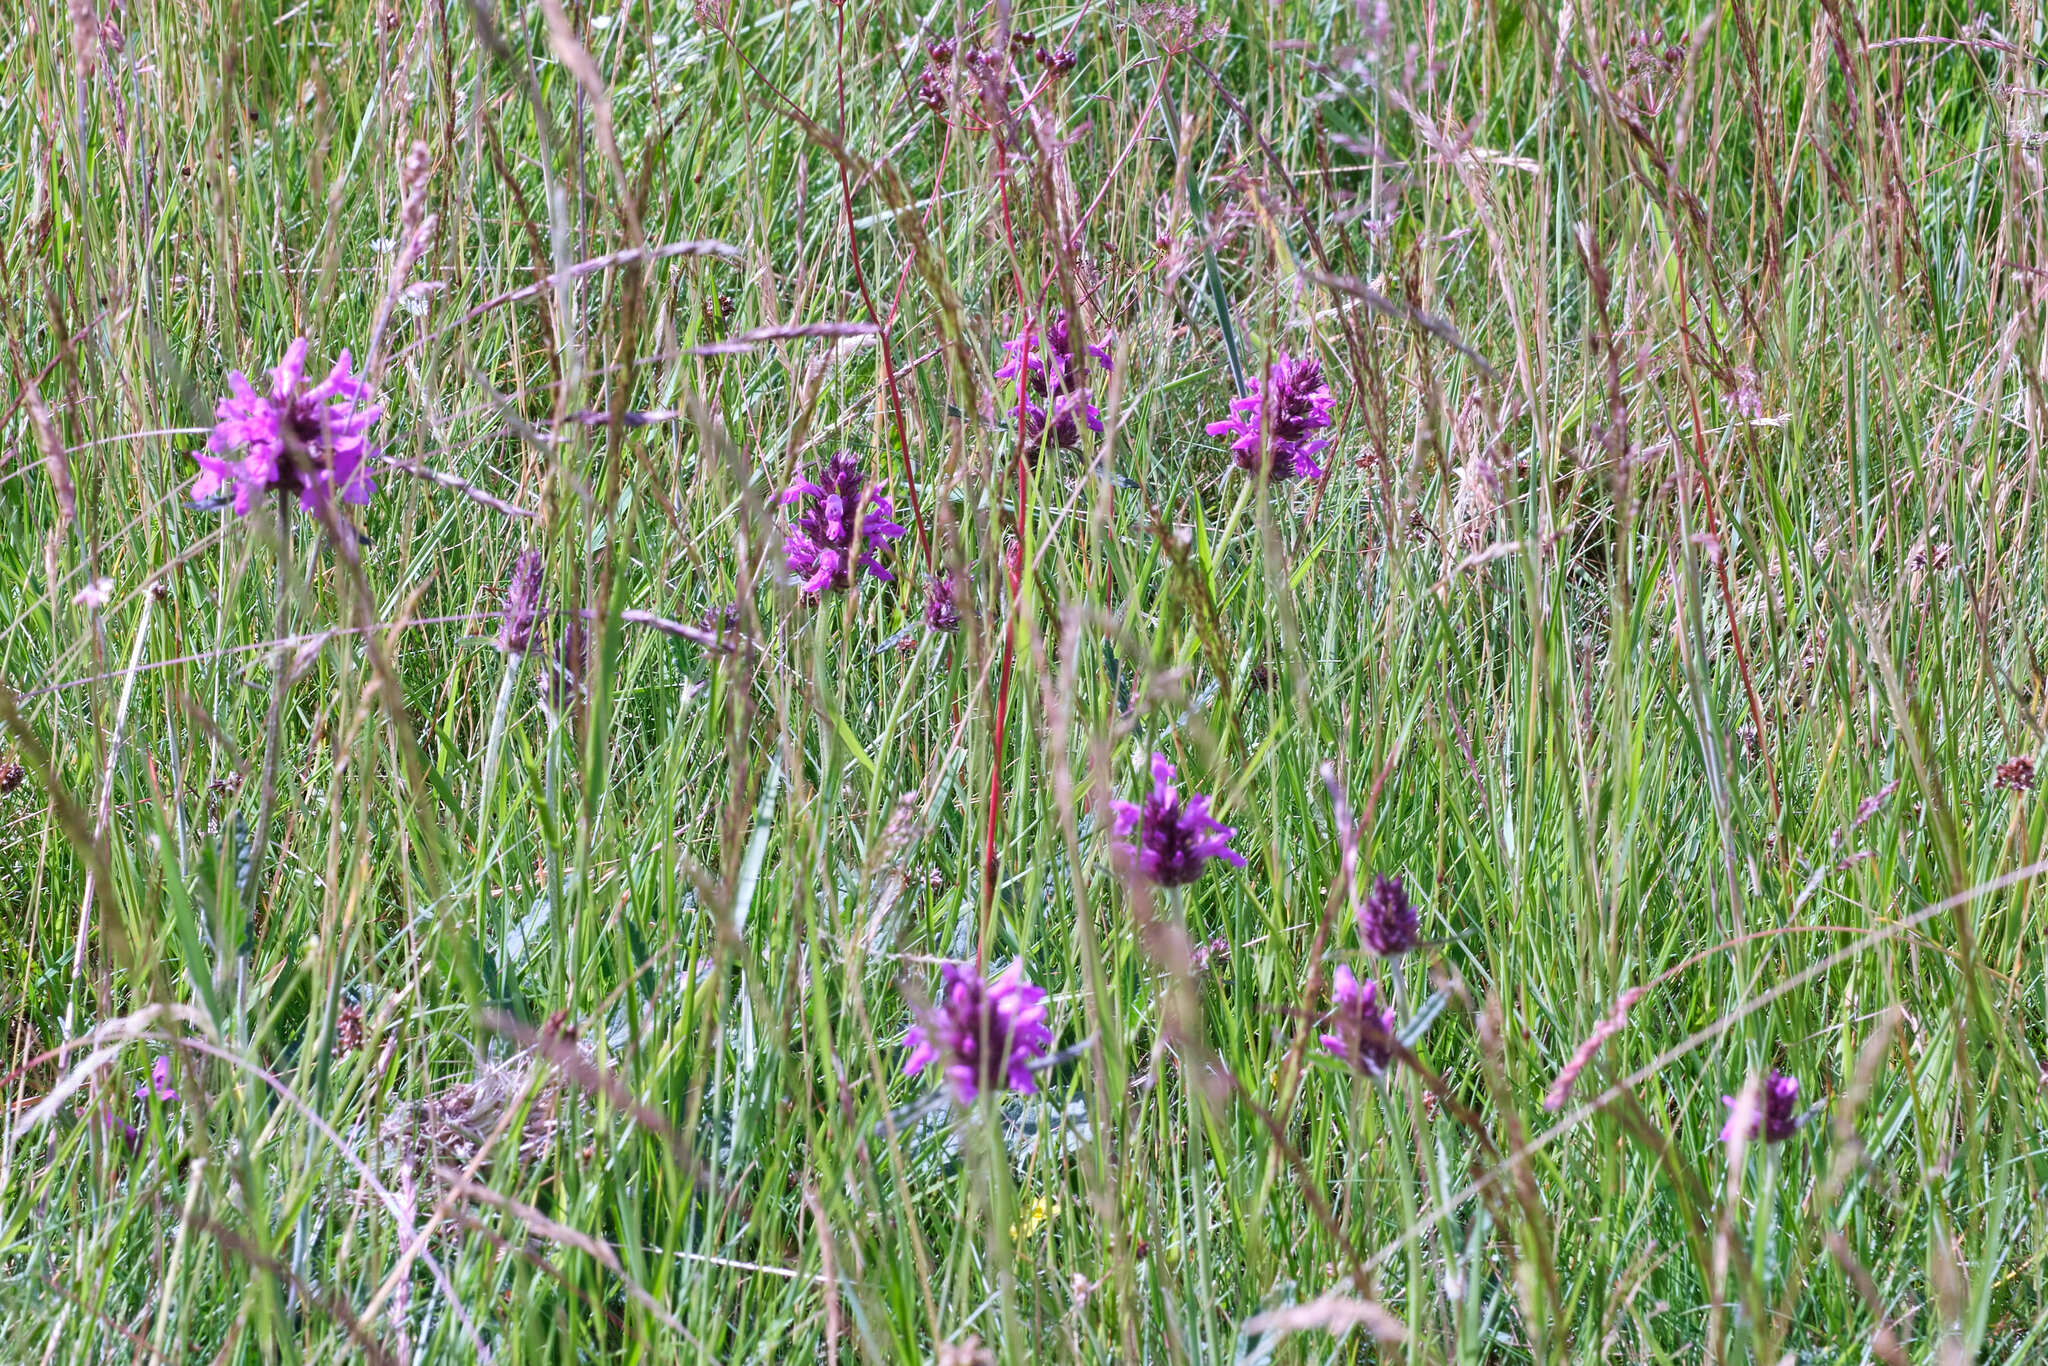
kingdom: Plantae
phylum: Tracheophyta
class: Magnoliopsida
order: Lamiales
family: Lamiaceae
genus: Betonica
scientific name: Betonica officinalis
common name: Bishop's-wort
